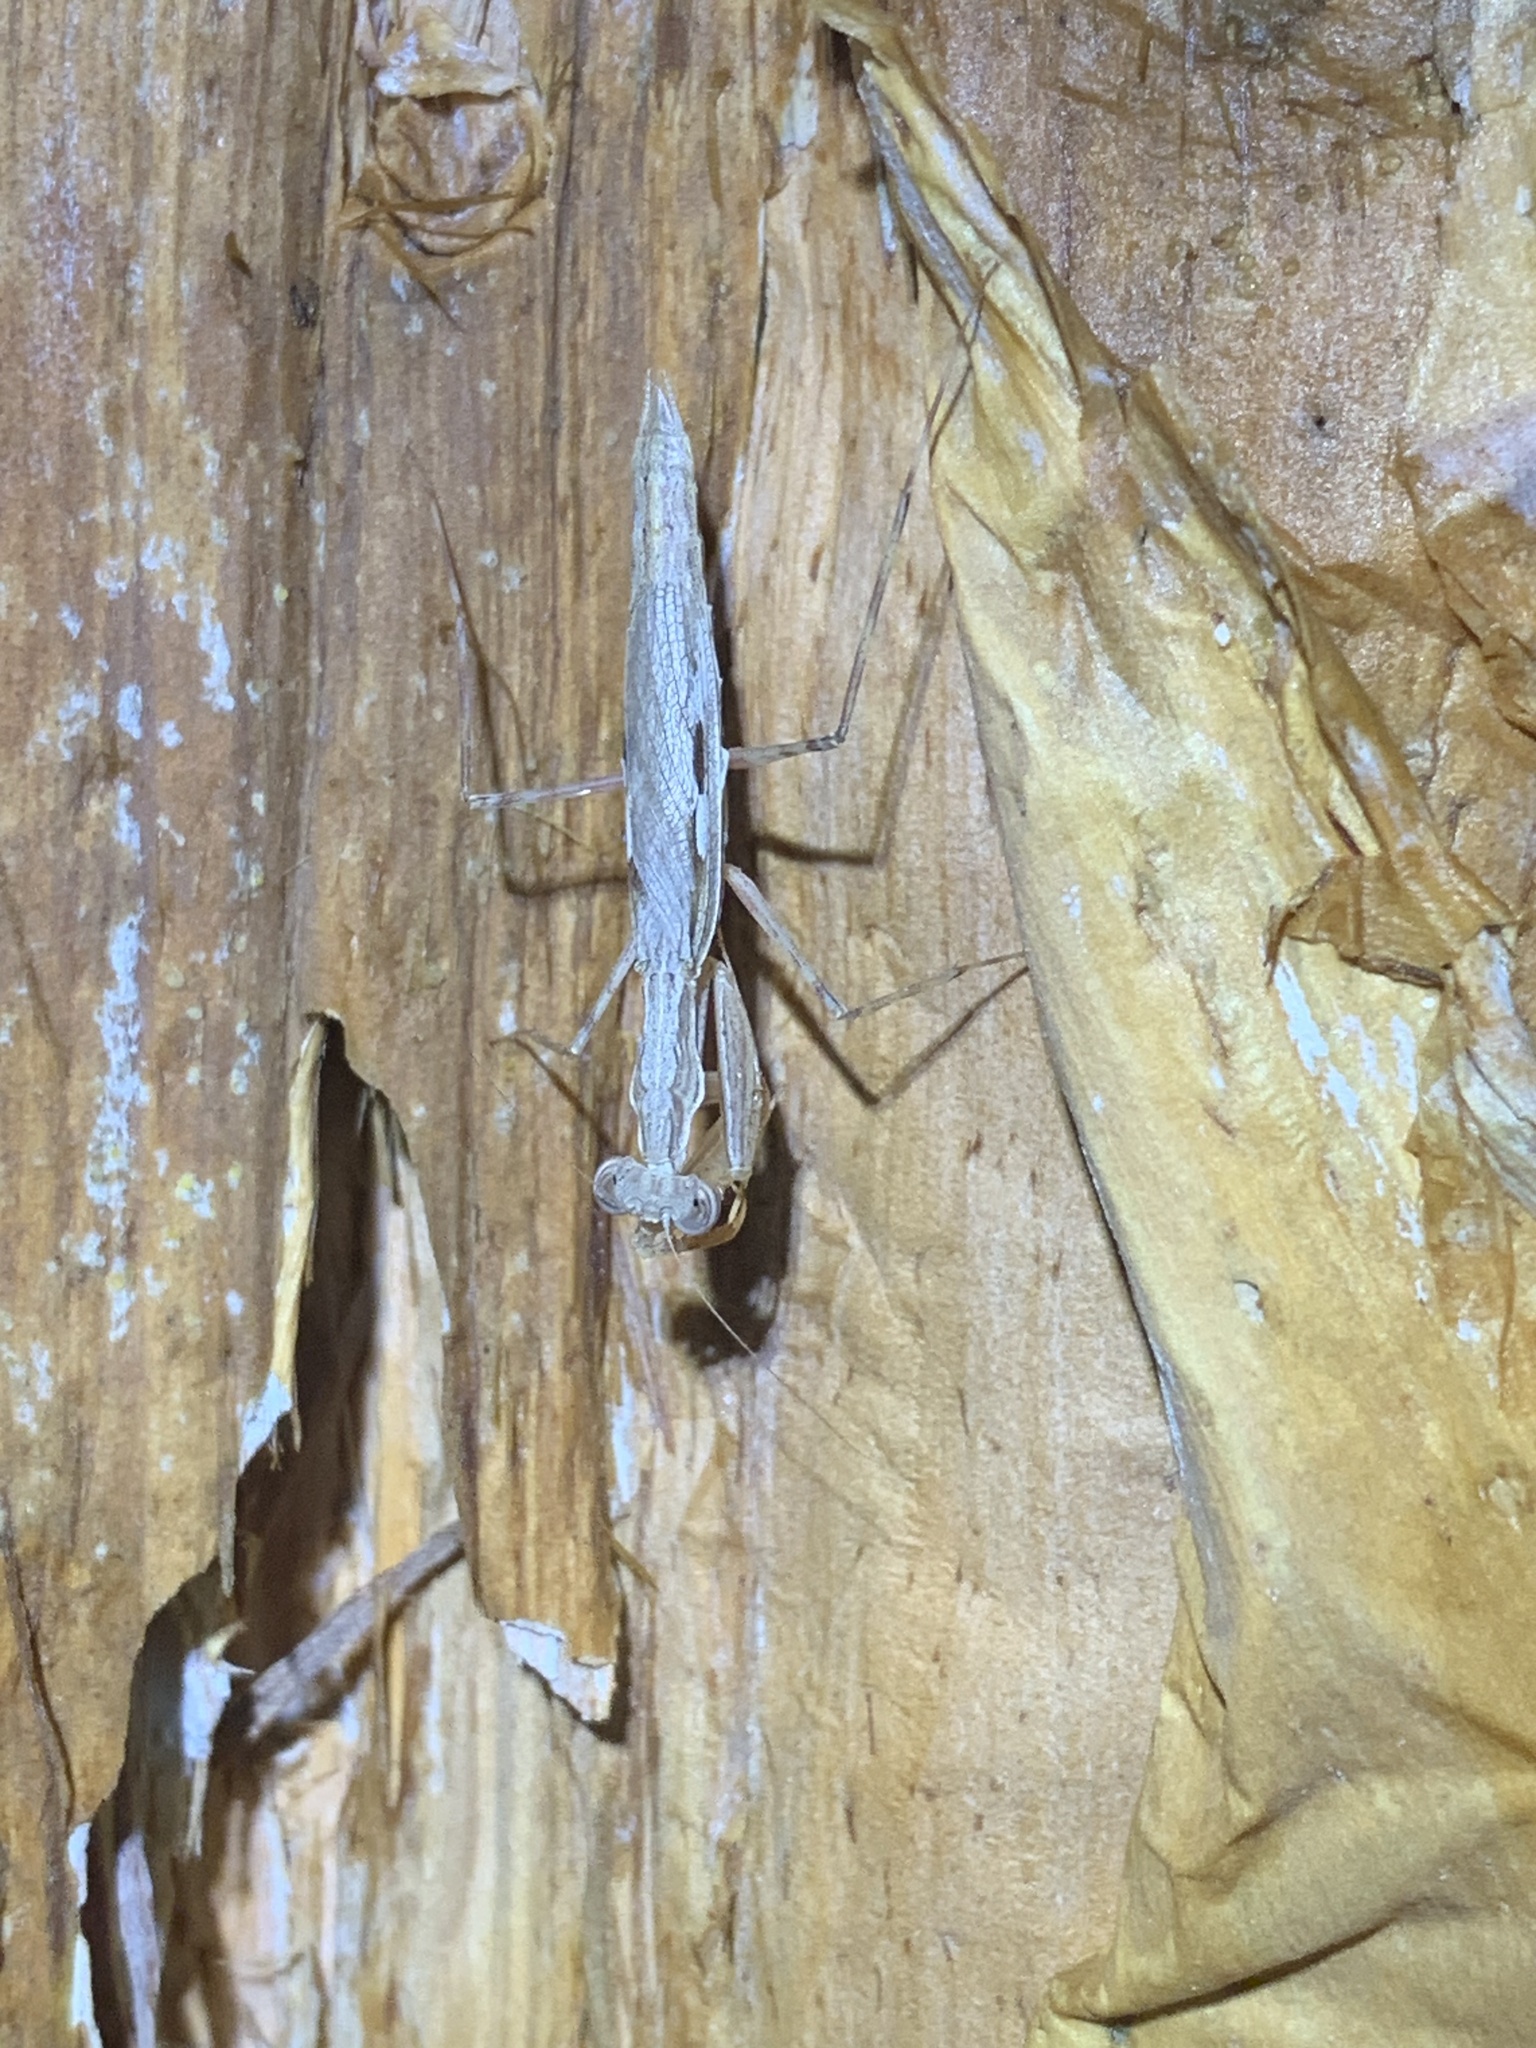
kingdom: Animalia
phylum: Arthropoda
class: Insecta
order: Mantodea
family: Nanomantidae
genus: Ima
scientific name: Ima fusca
